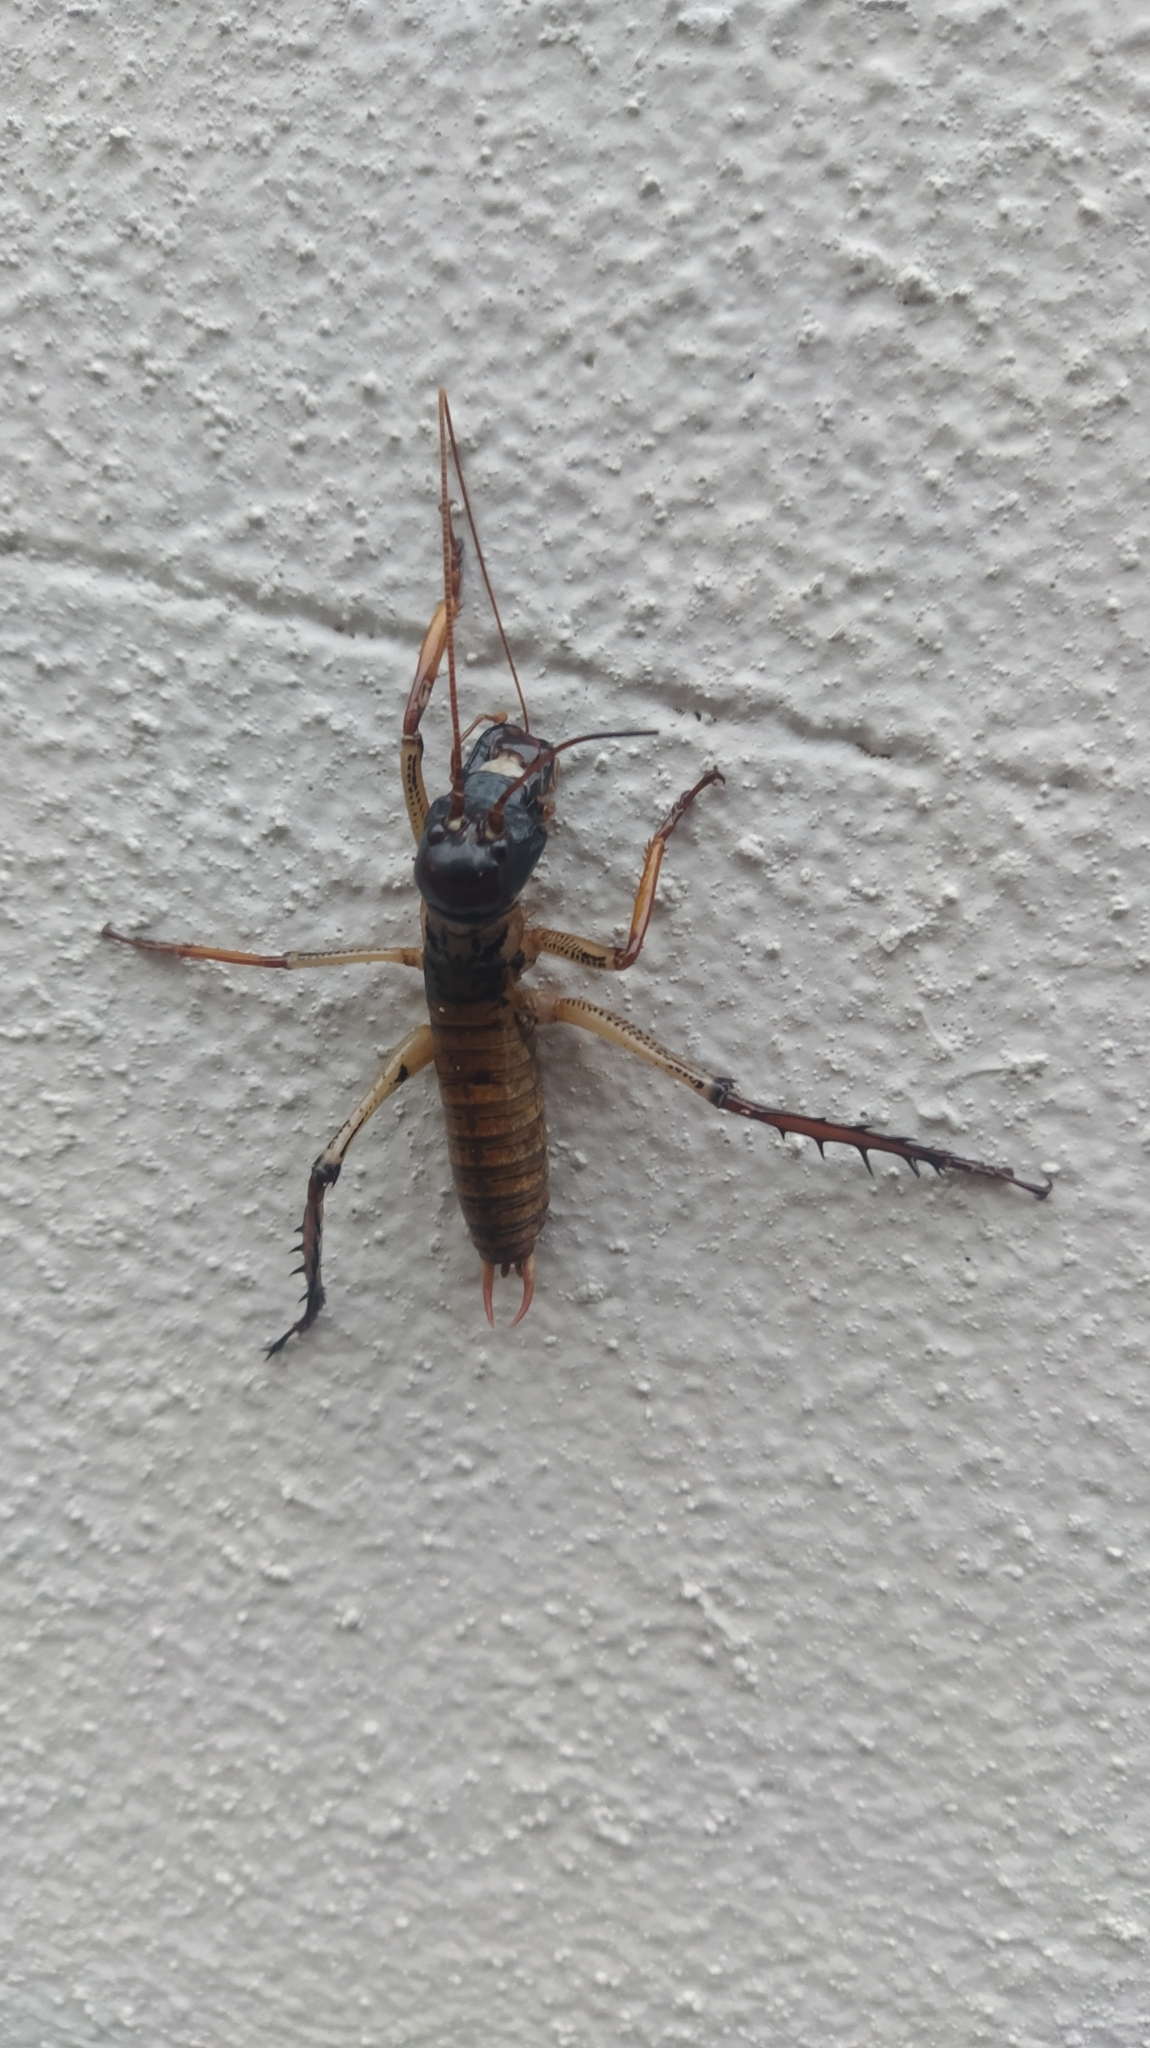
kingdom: Animalia
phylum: Arthropoda
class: Insecta
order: Orthoptera
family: Anostostomatidae
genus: Hemideina
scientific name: Hemideina thoracica
